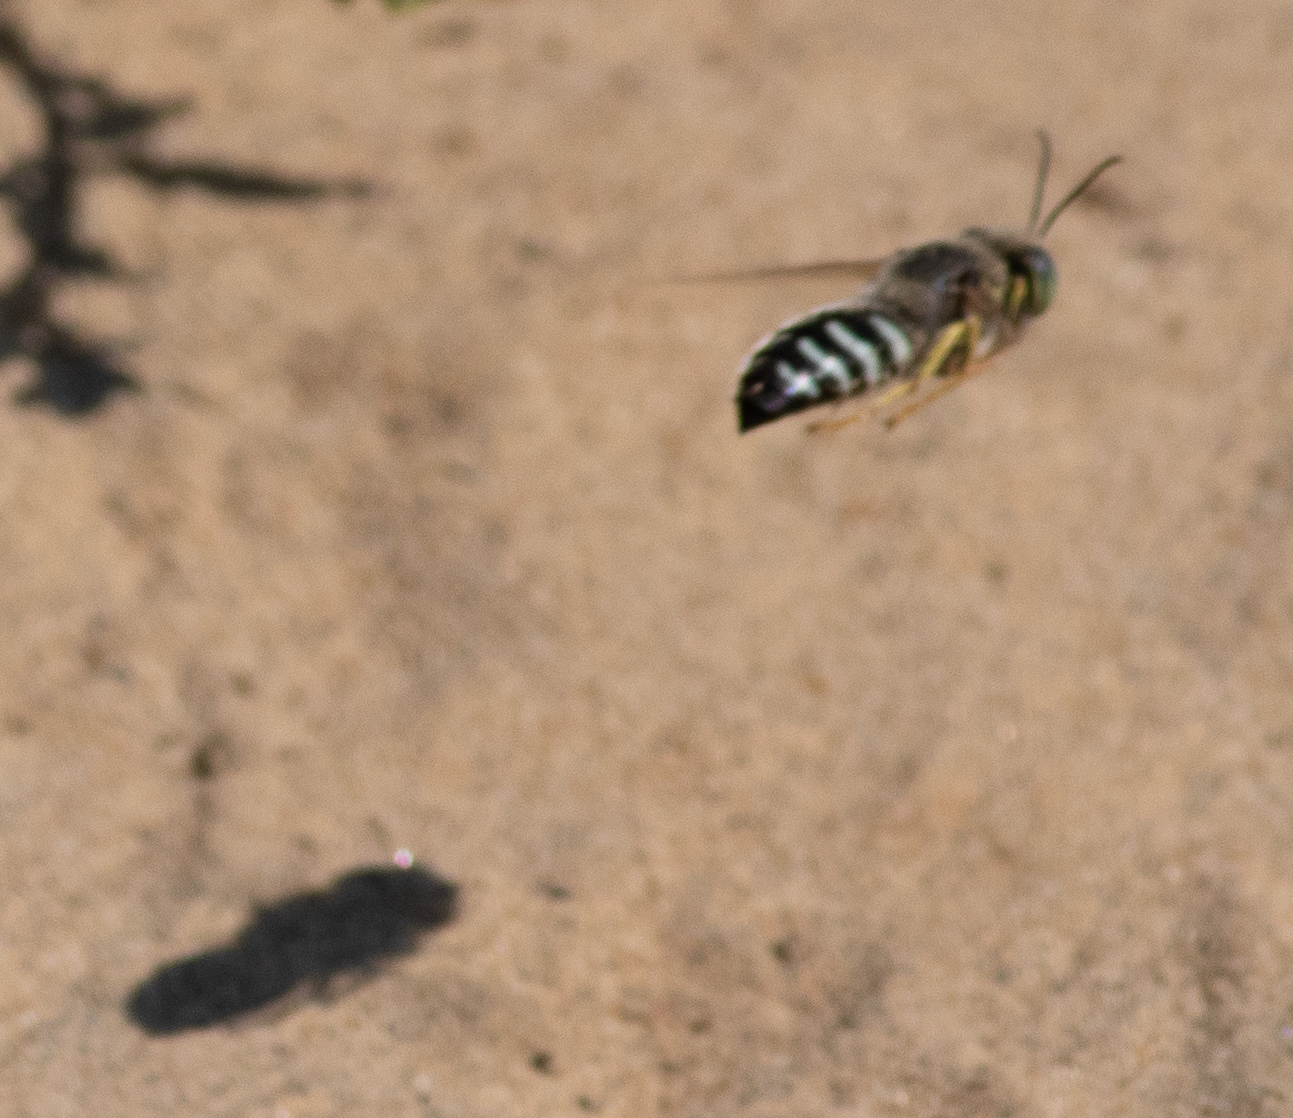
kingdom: Animalia
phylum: Arthropoda
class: Insecta
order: Hymenoptera
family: Crabronidae
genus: Bembix
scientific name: Bembix americana
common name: American sand wasp
